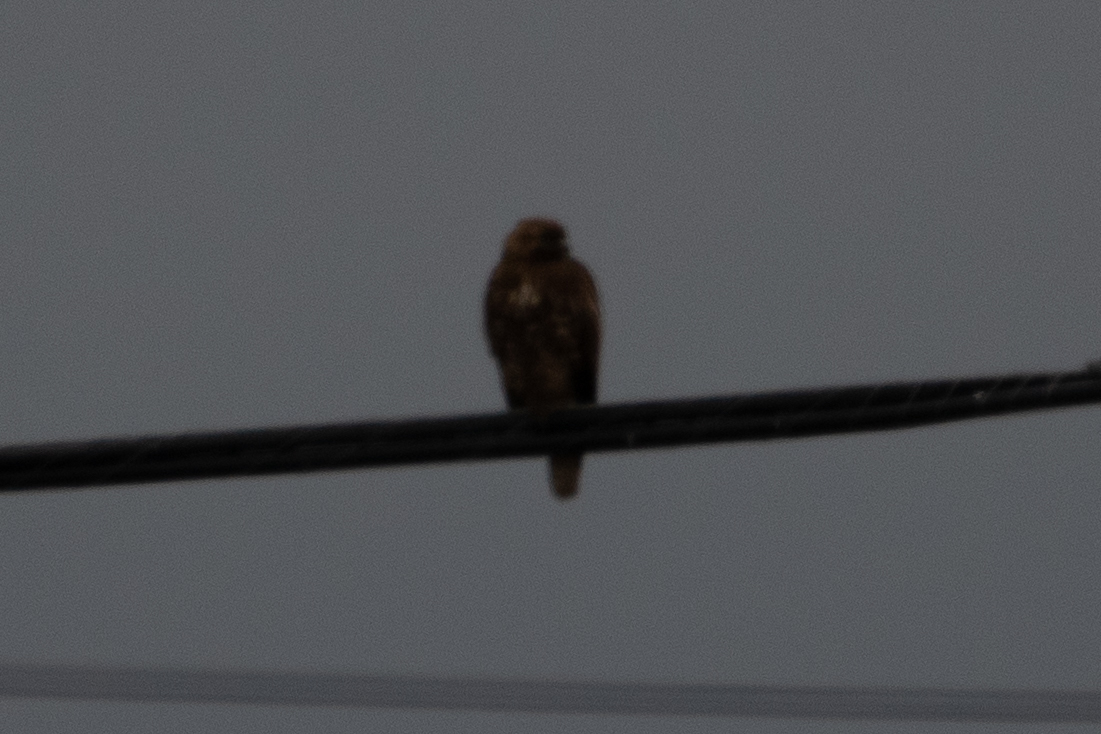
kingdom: Animalia
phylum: Chordata
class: Aves
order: Accipitriformes
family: Accipitridae
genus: Buteo
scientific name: Buteo jamaicensis
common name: Red-tailed hawk
